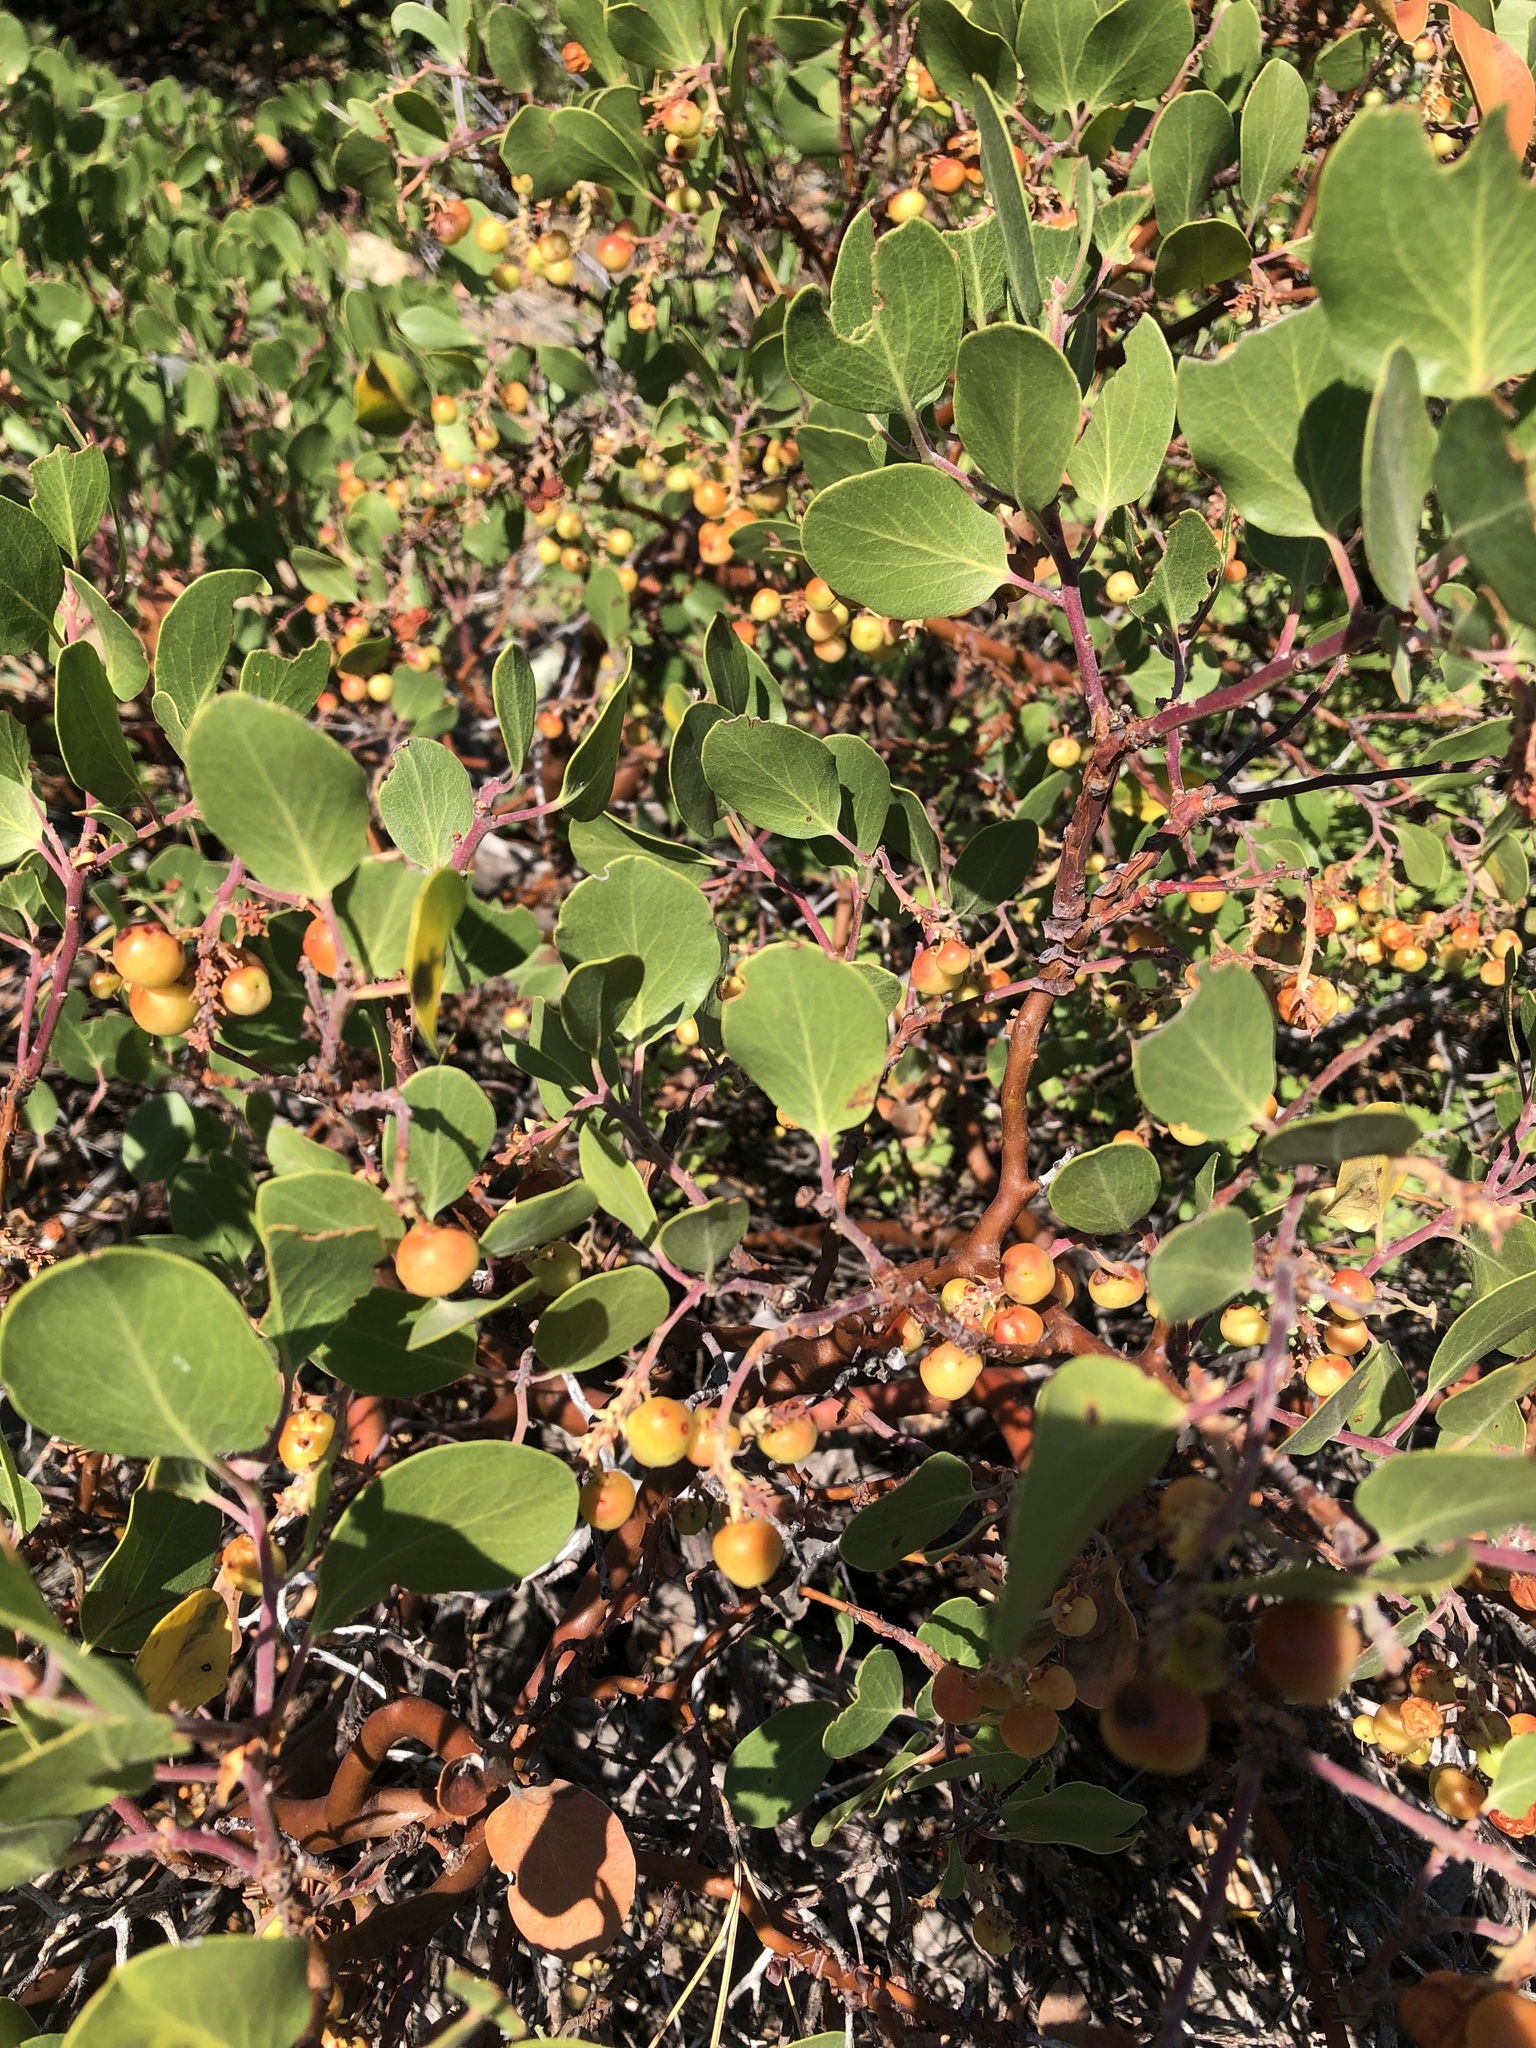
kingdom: Plantae
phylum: Tracheophyta
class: Magnoliopsida
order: Ericales
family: Ericaceae
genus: Arctostaphylos
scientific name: Arctostaphylos patula
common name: Green-leaf manzanita
